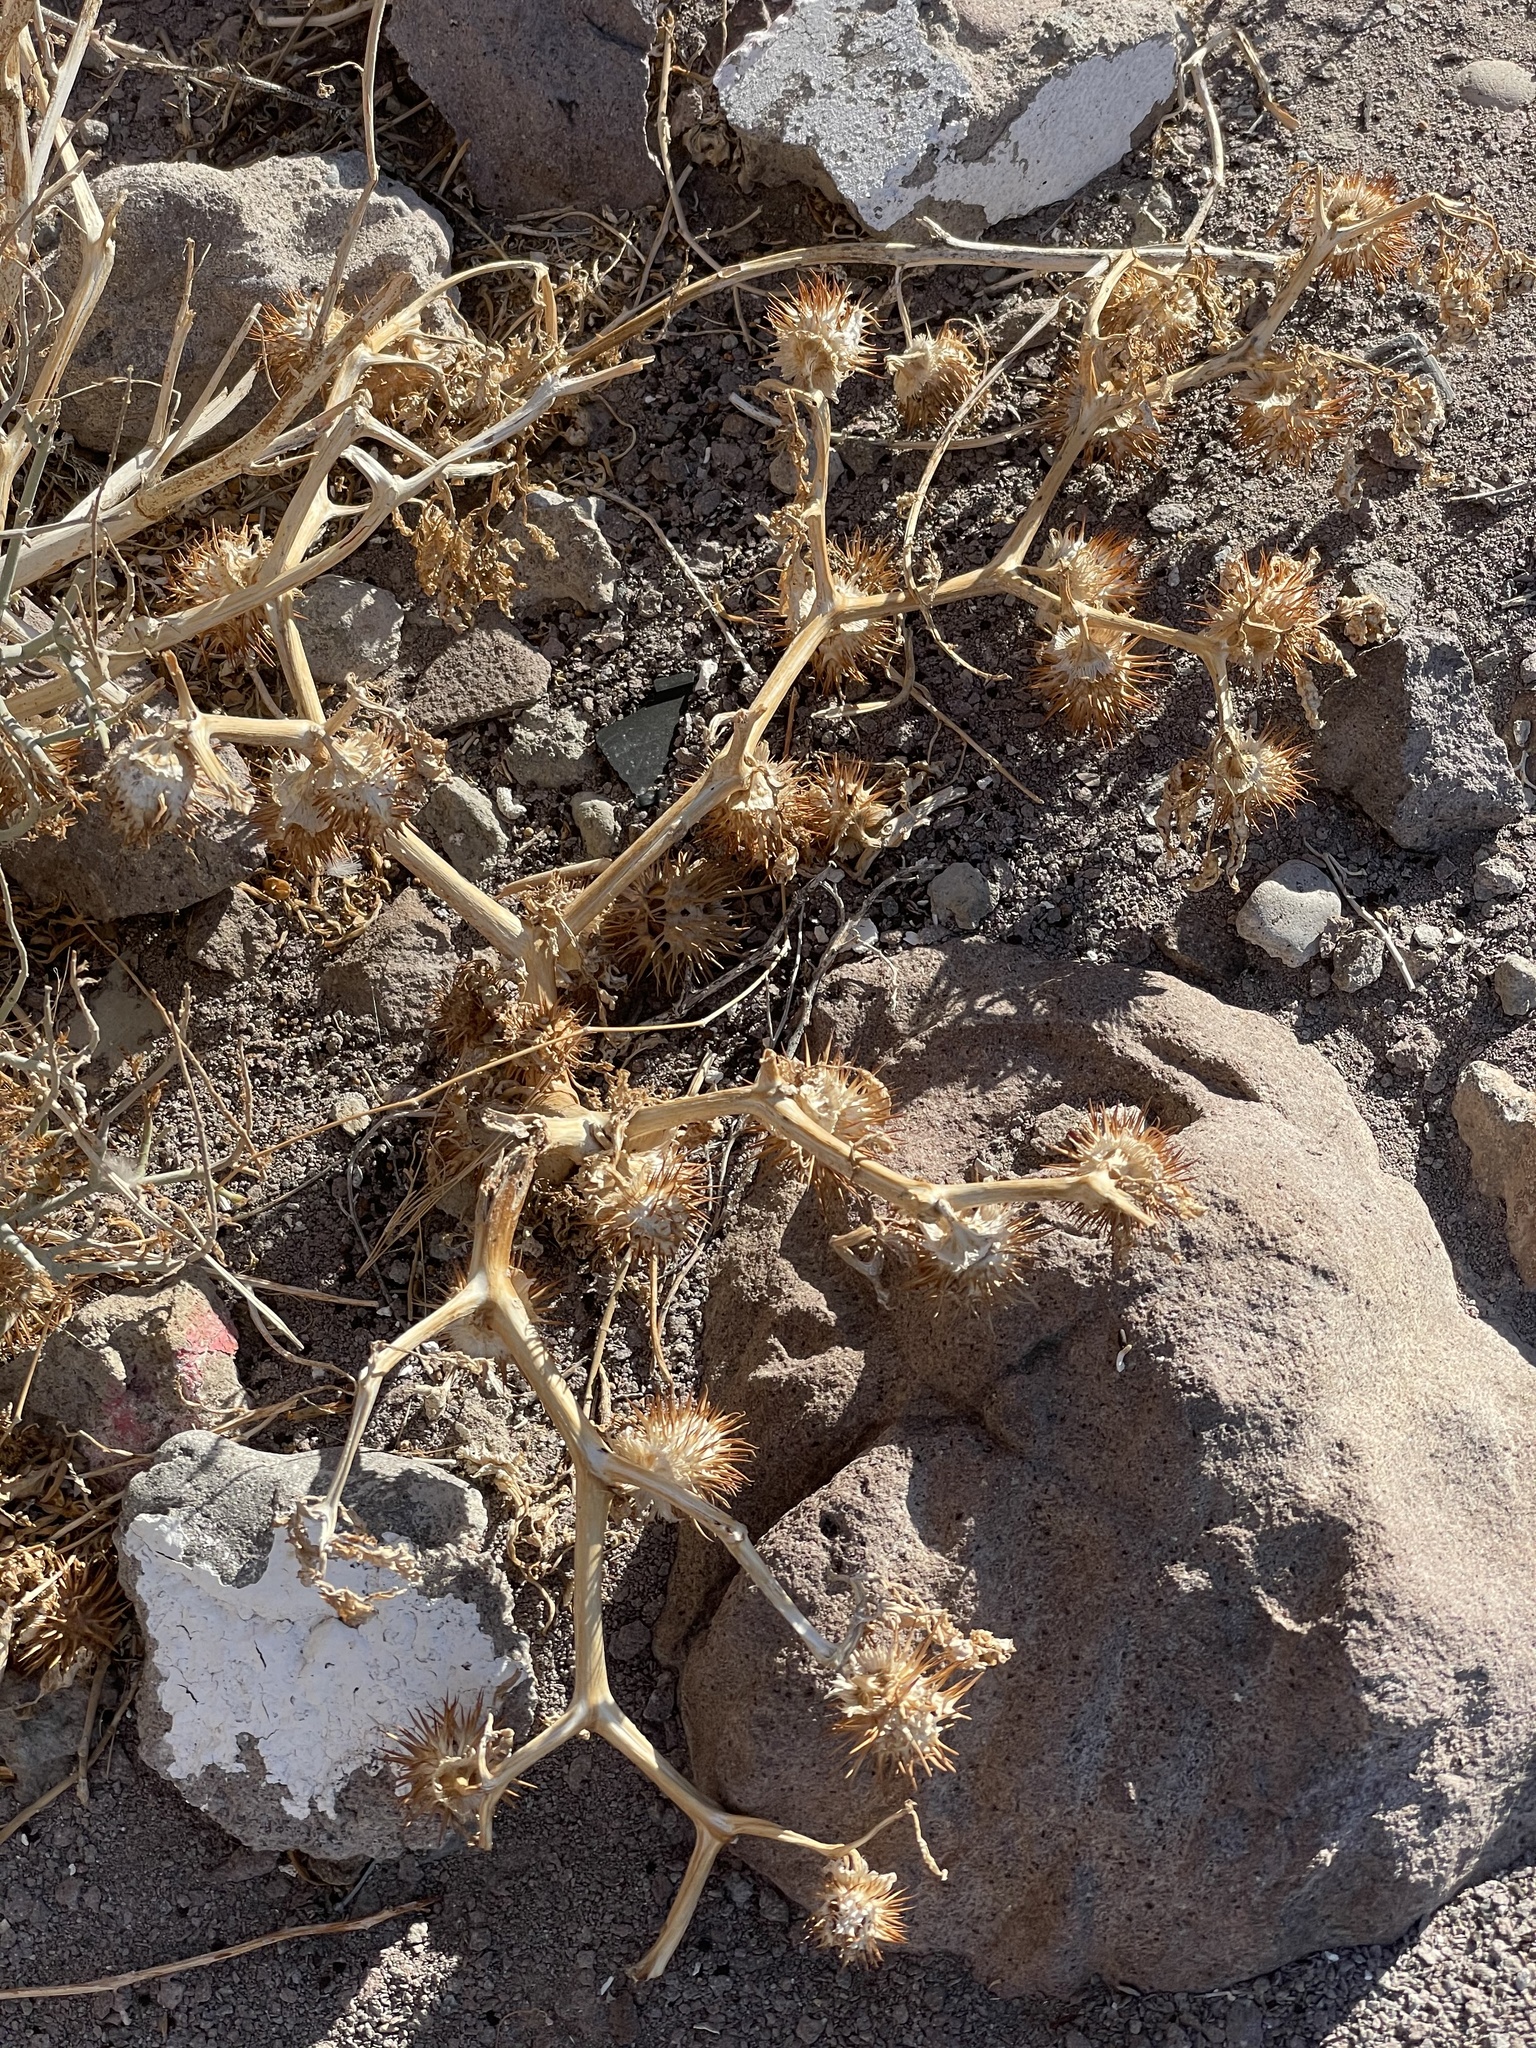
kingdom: Plantae
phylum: Tracheophyta
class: Magnoliopsida
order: Solanales
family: Solanaceae
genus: Datura
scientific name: Datura wrightii
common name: Sacred thorn-apple
